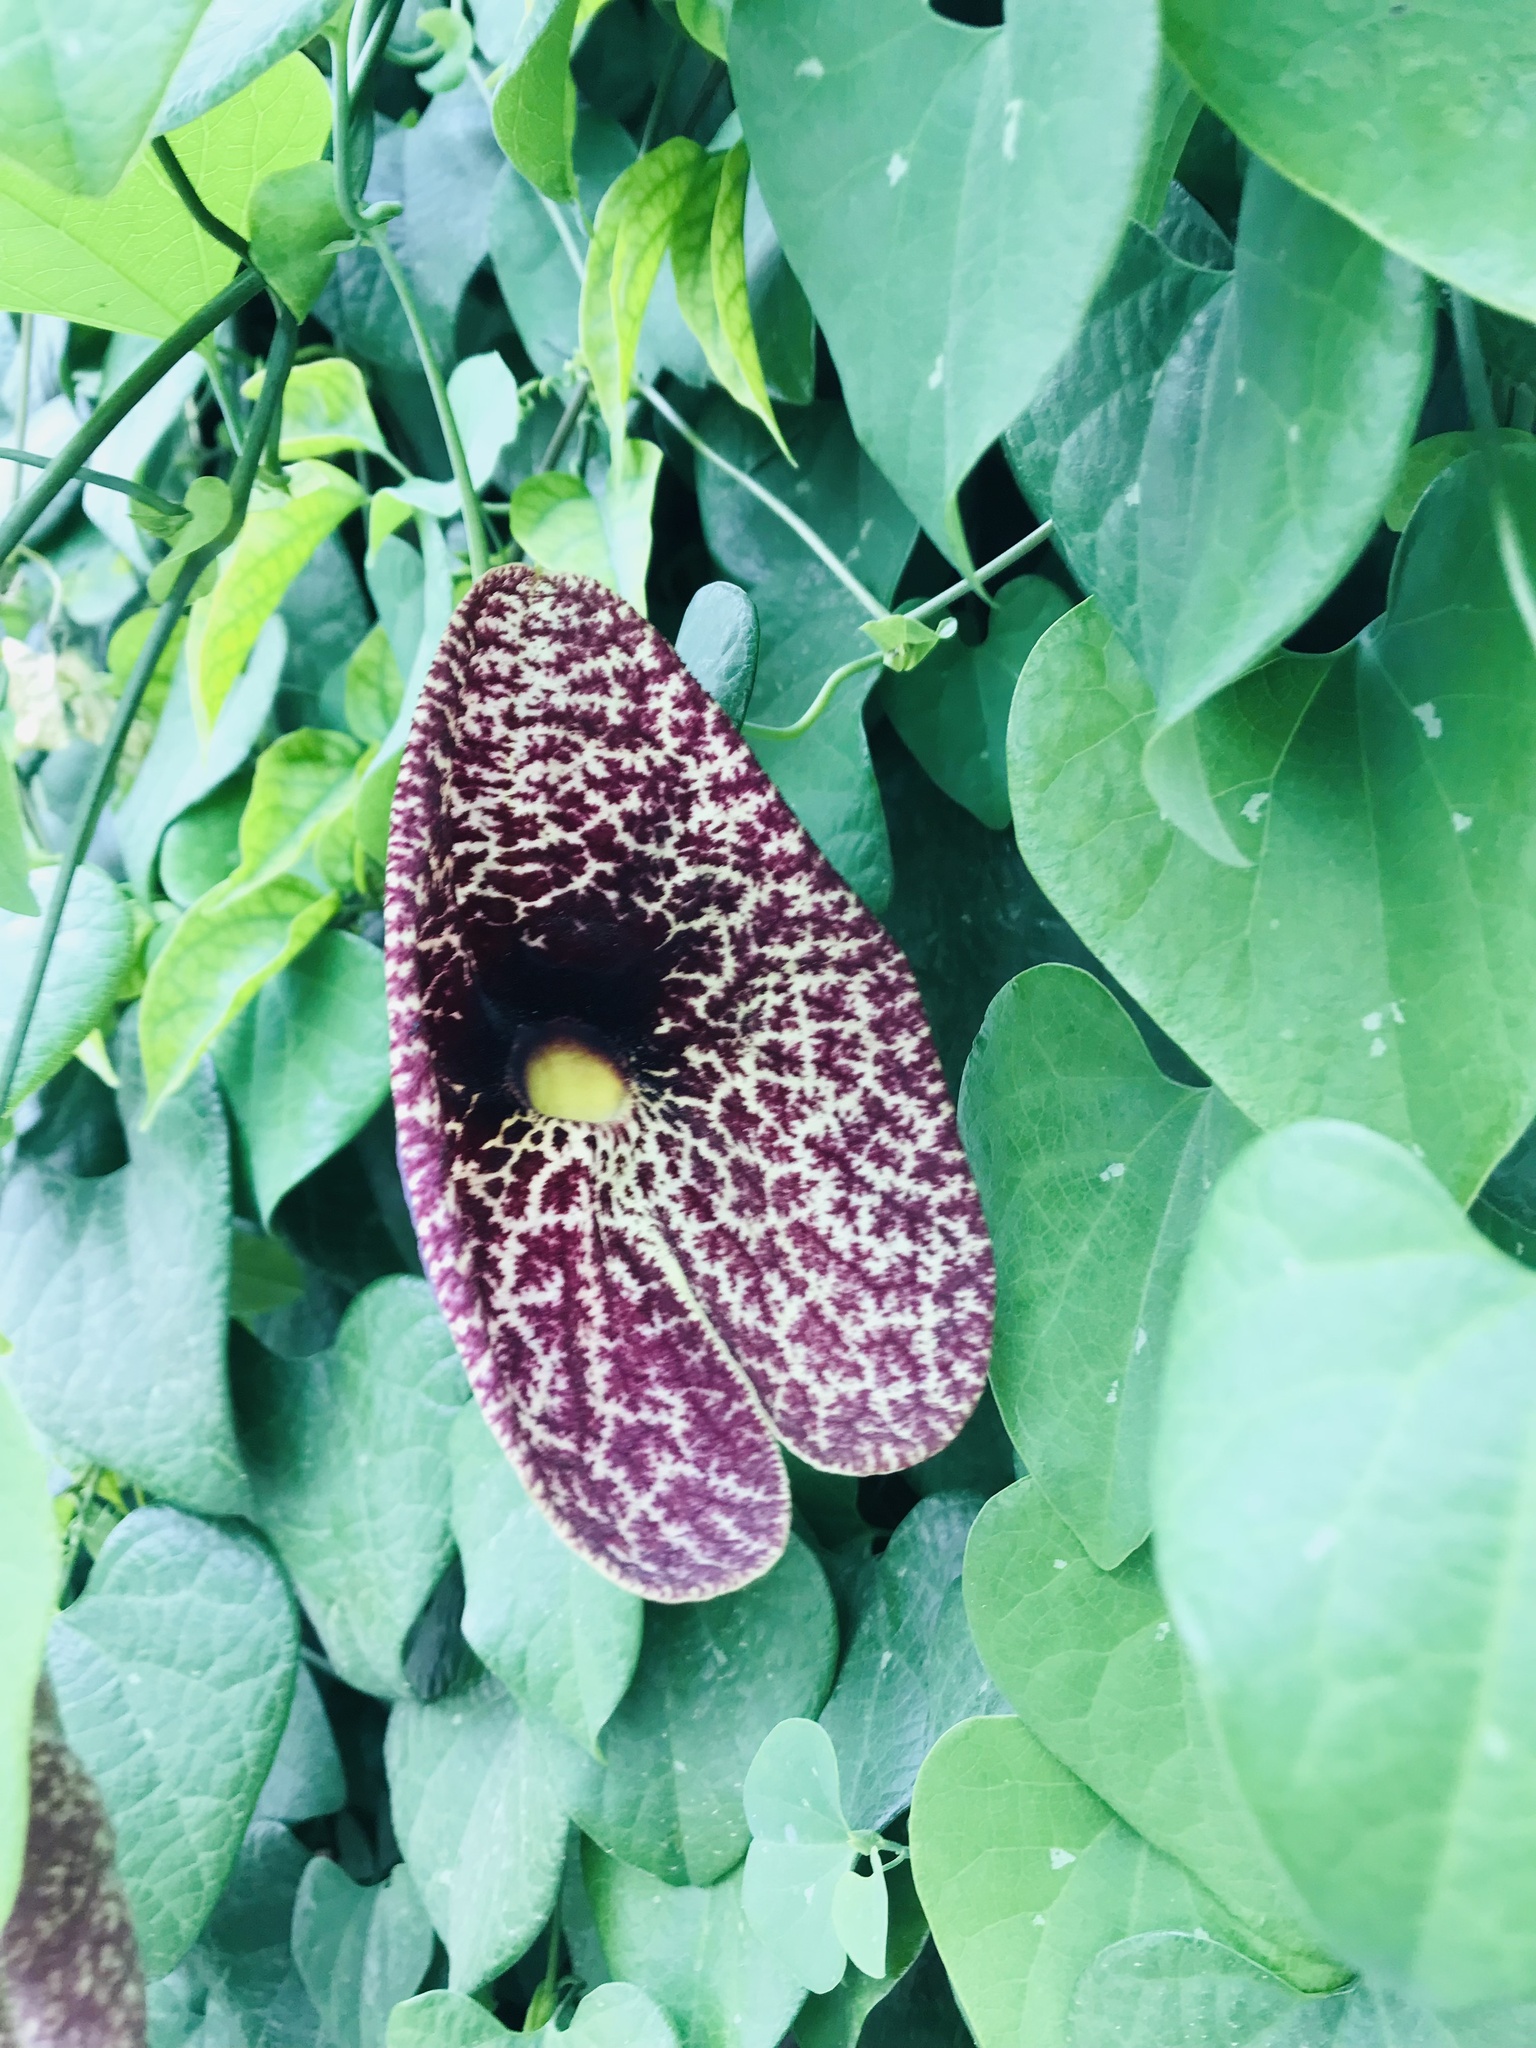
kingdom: Plantae
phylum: Tracheophyta
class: Magnoliopsida
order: Piperales
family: Aristolochiaceae
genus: Aristolochia
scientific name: Aristolochia littoralis
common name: Duck
